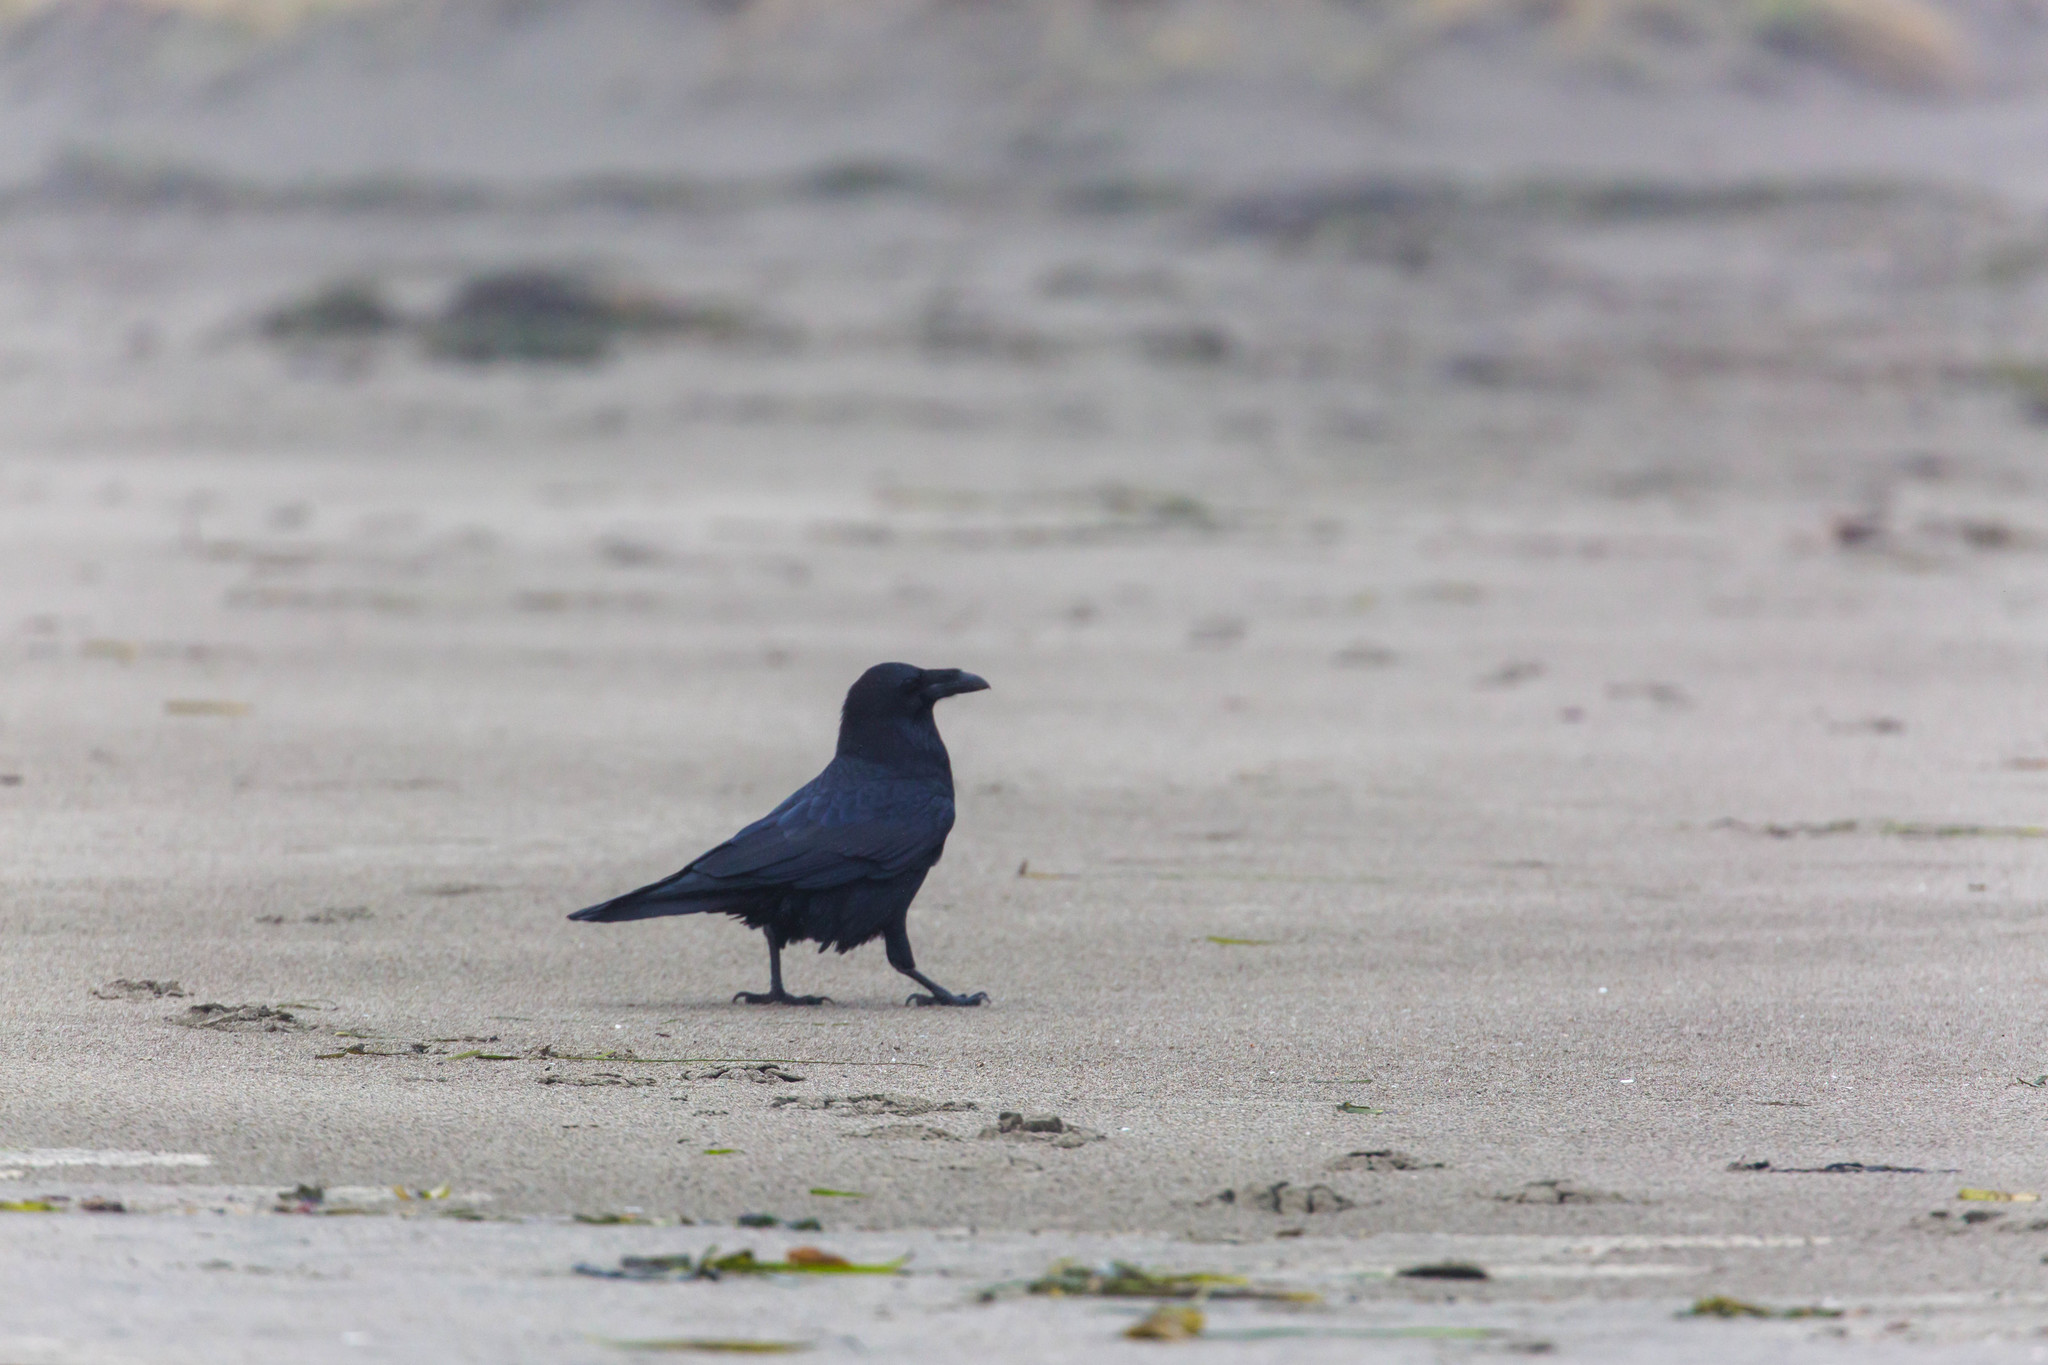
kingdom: Animalia
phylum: Chordata
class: Aves
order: Passeriformes
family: Corvidae
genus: Corvus
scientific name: Corvus corax
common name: Common raven
